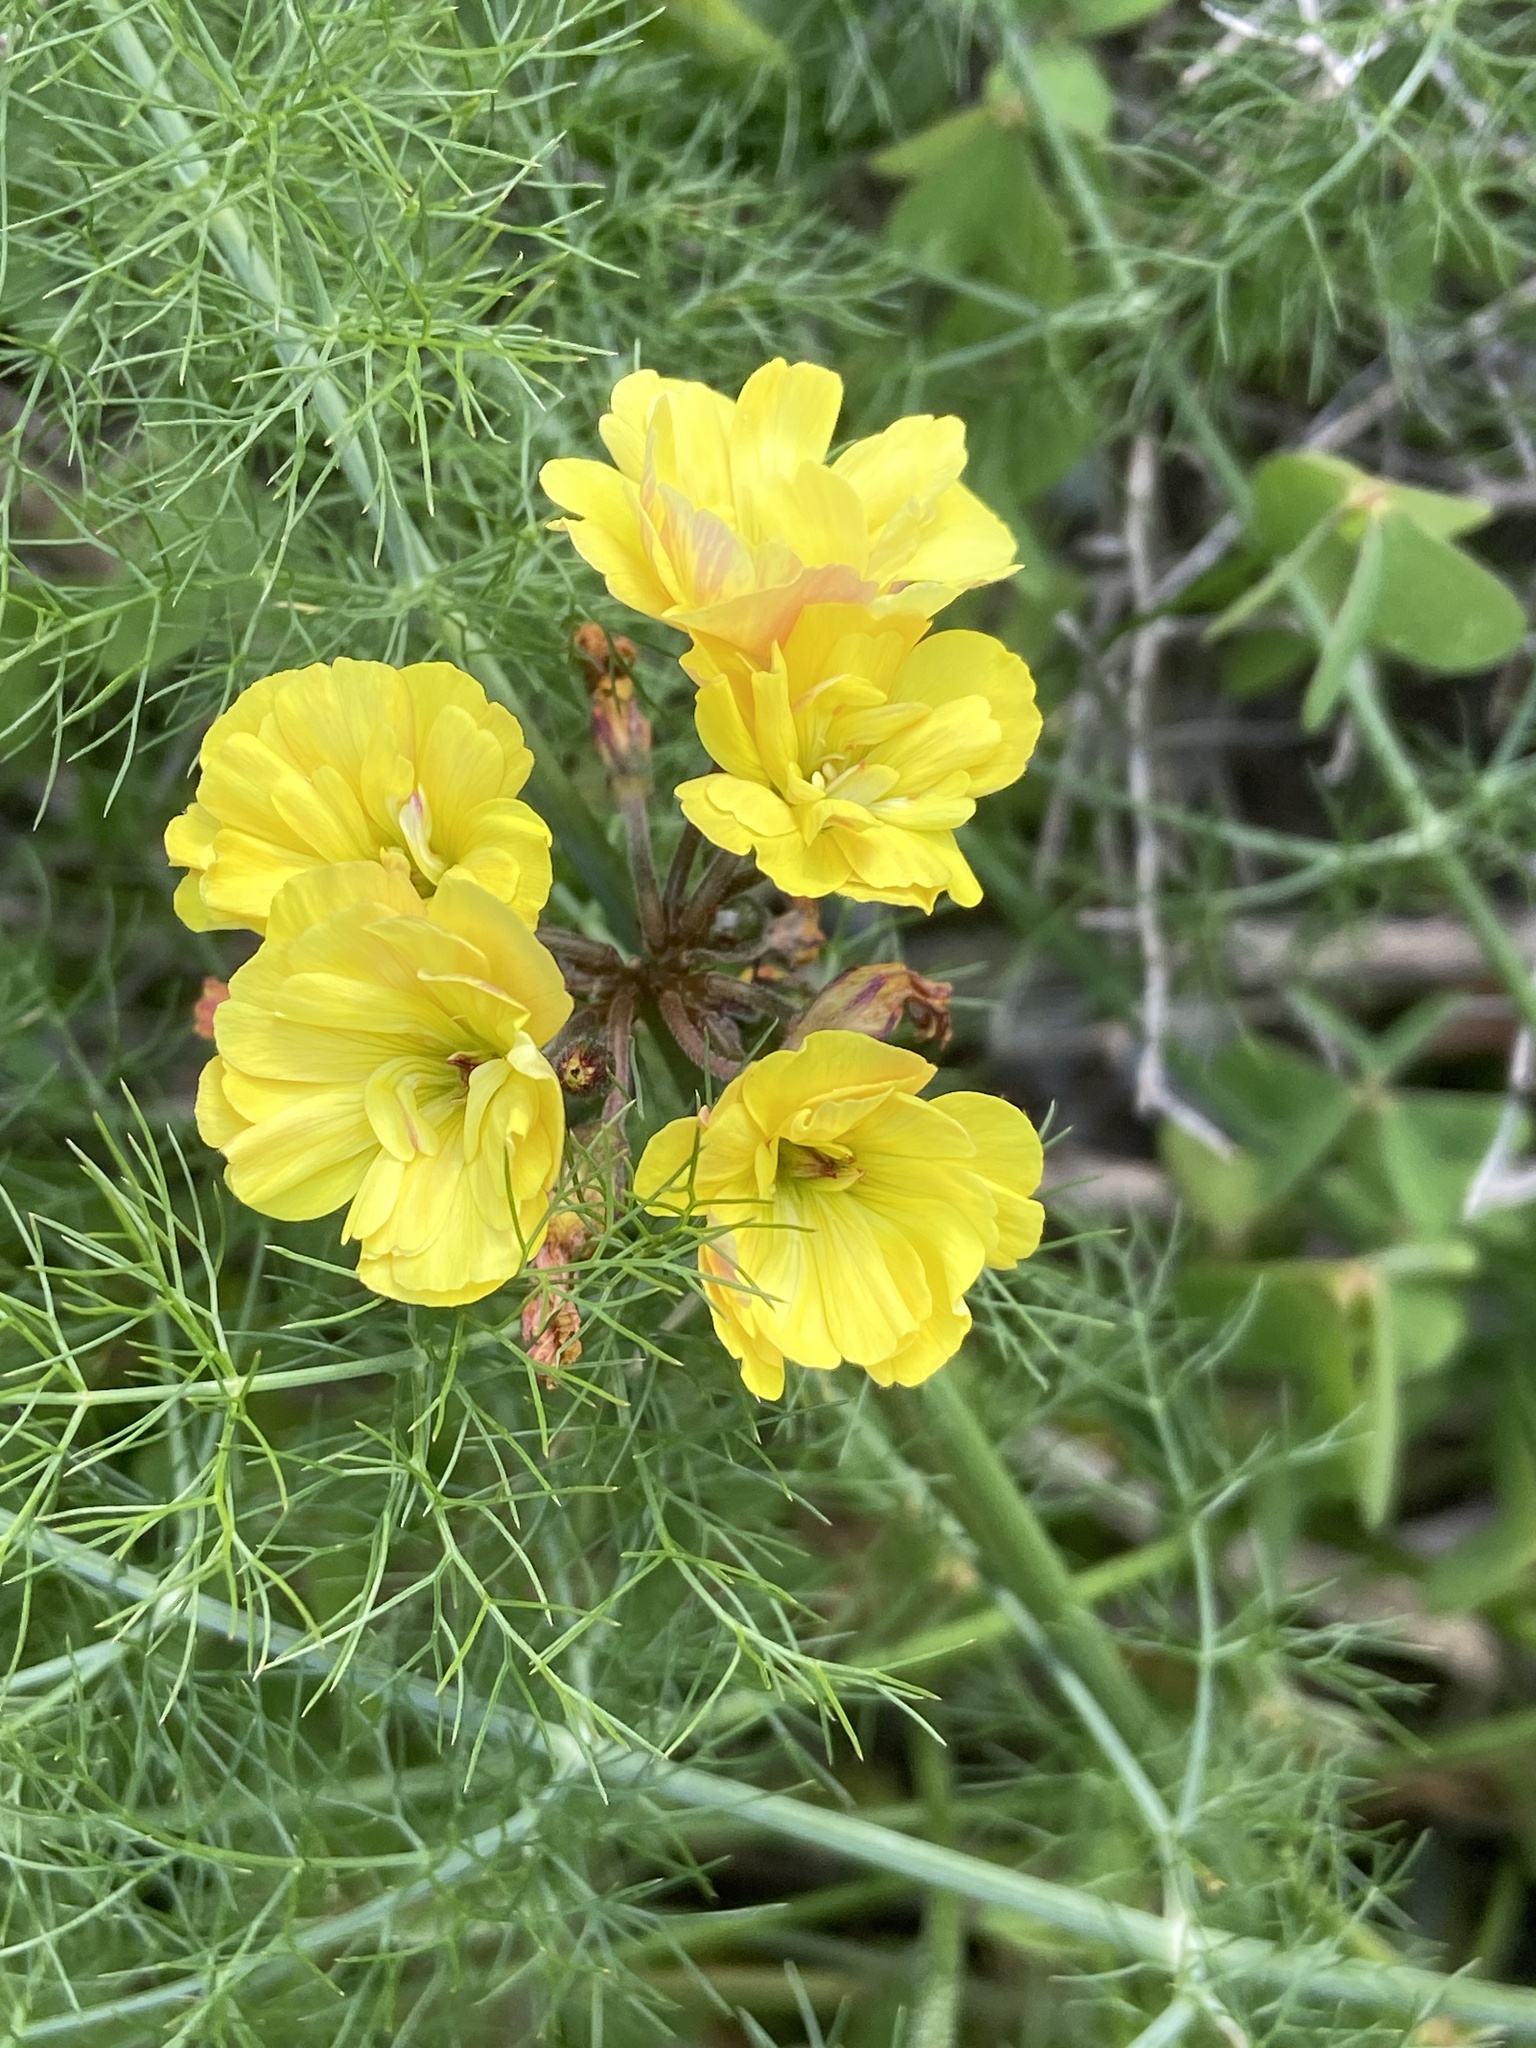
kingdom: Plantae
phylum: Tracheophyta
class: Magnoliopsida
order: Oxalidales
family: Oxalidaceae
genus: Oxalis
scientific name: Oxalis pes-caprae
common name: Bermuda-buttercup
